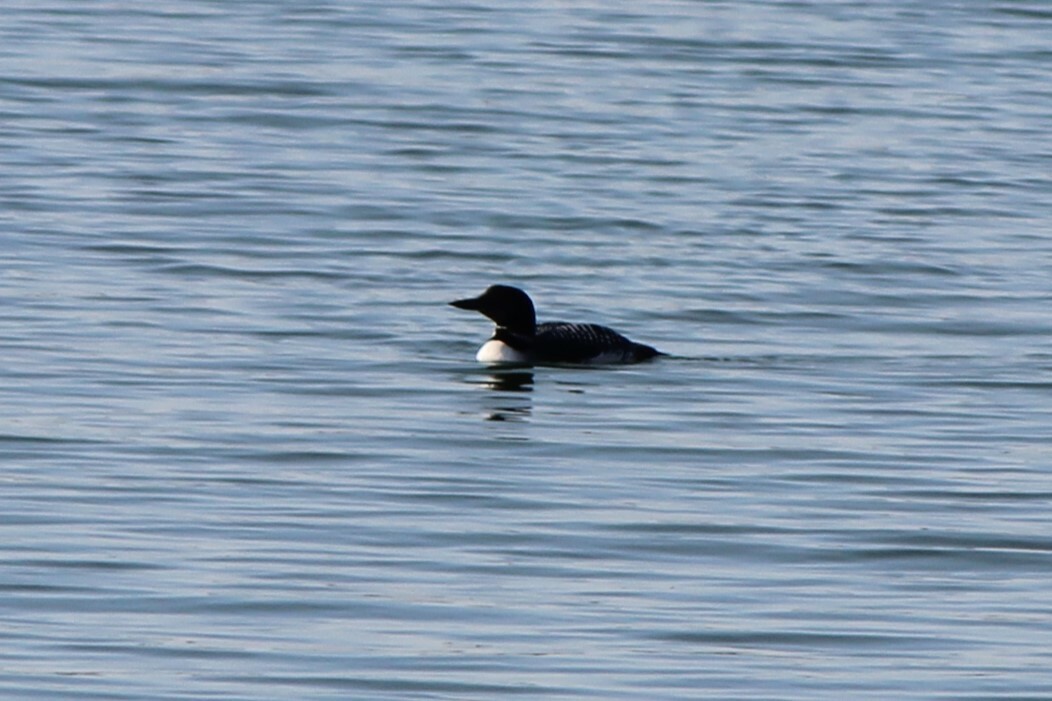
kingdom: Animalia
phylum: Chordata
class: Aves
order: Gaviiformes
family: Gaviidae
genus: Gavia
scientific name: Gavia immer
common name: Common loon
